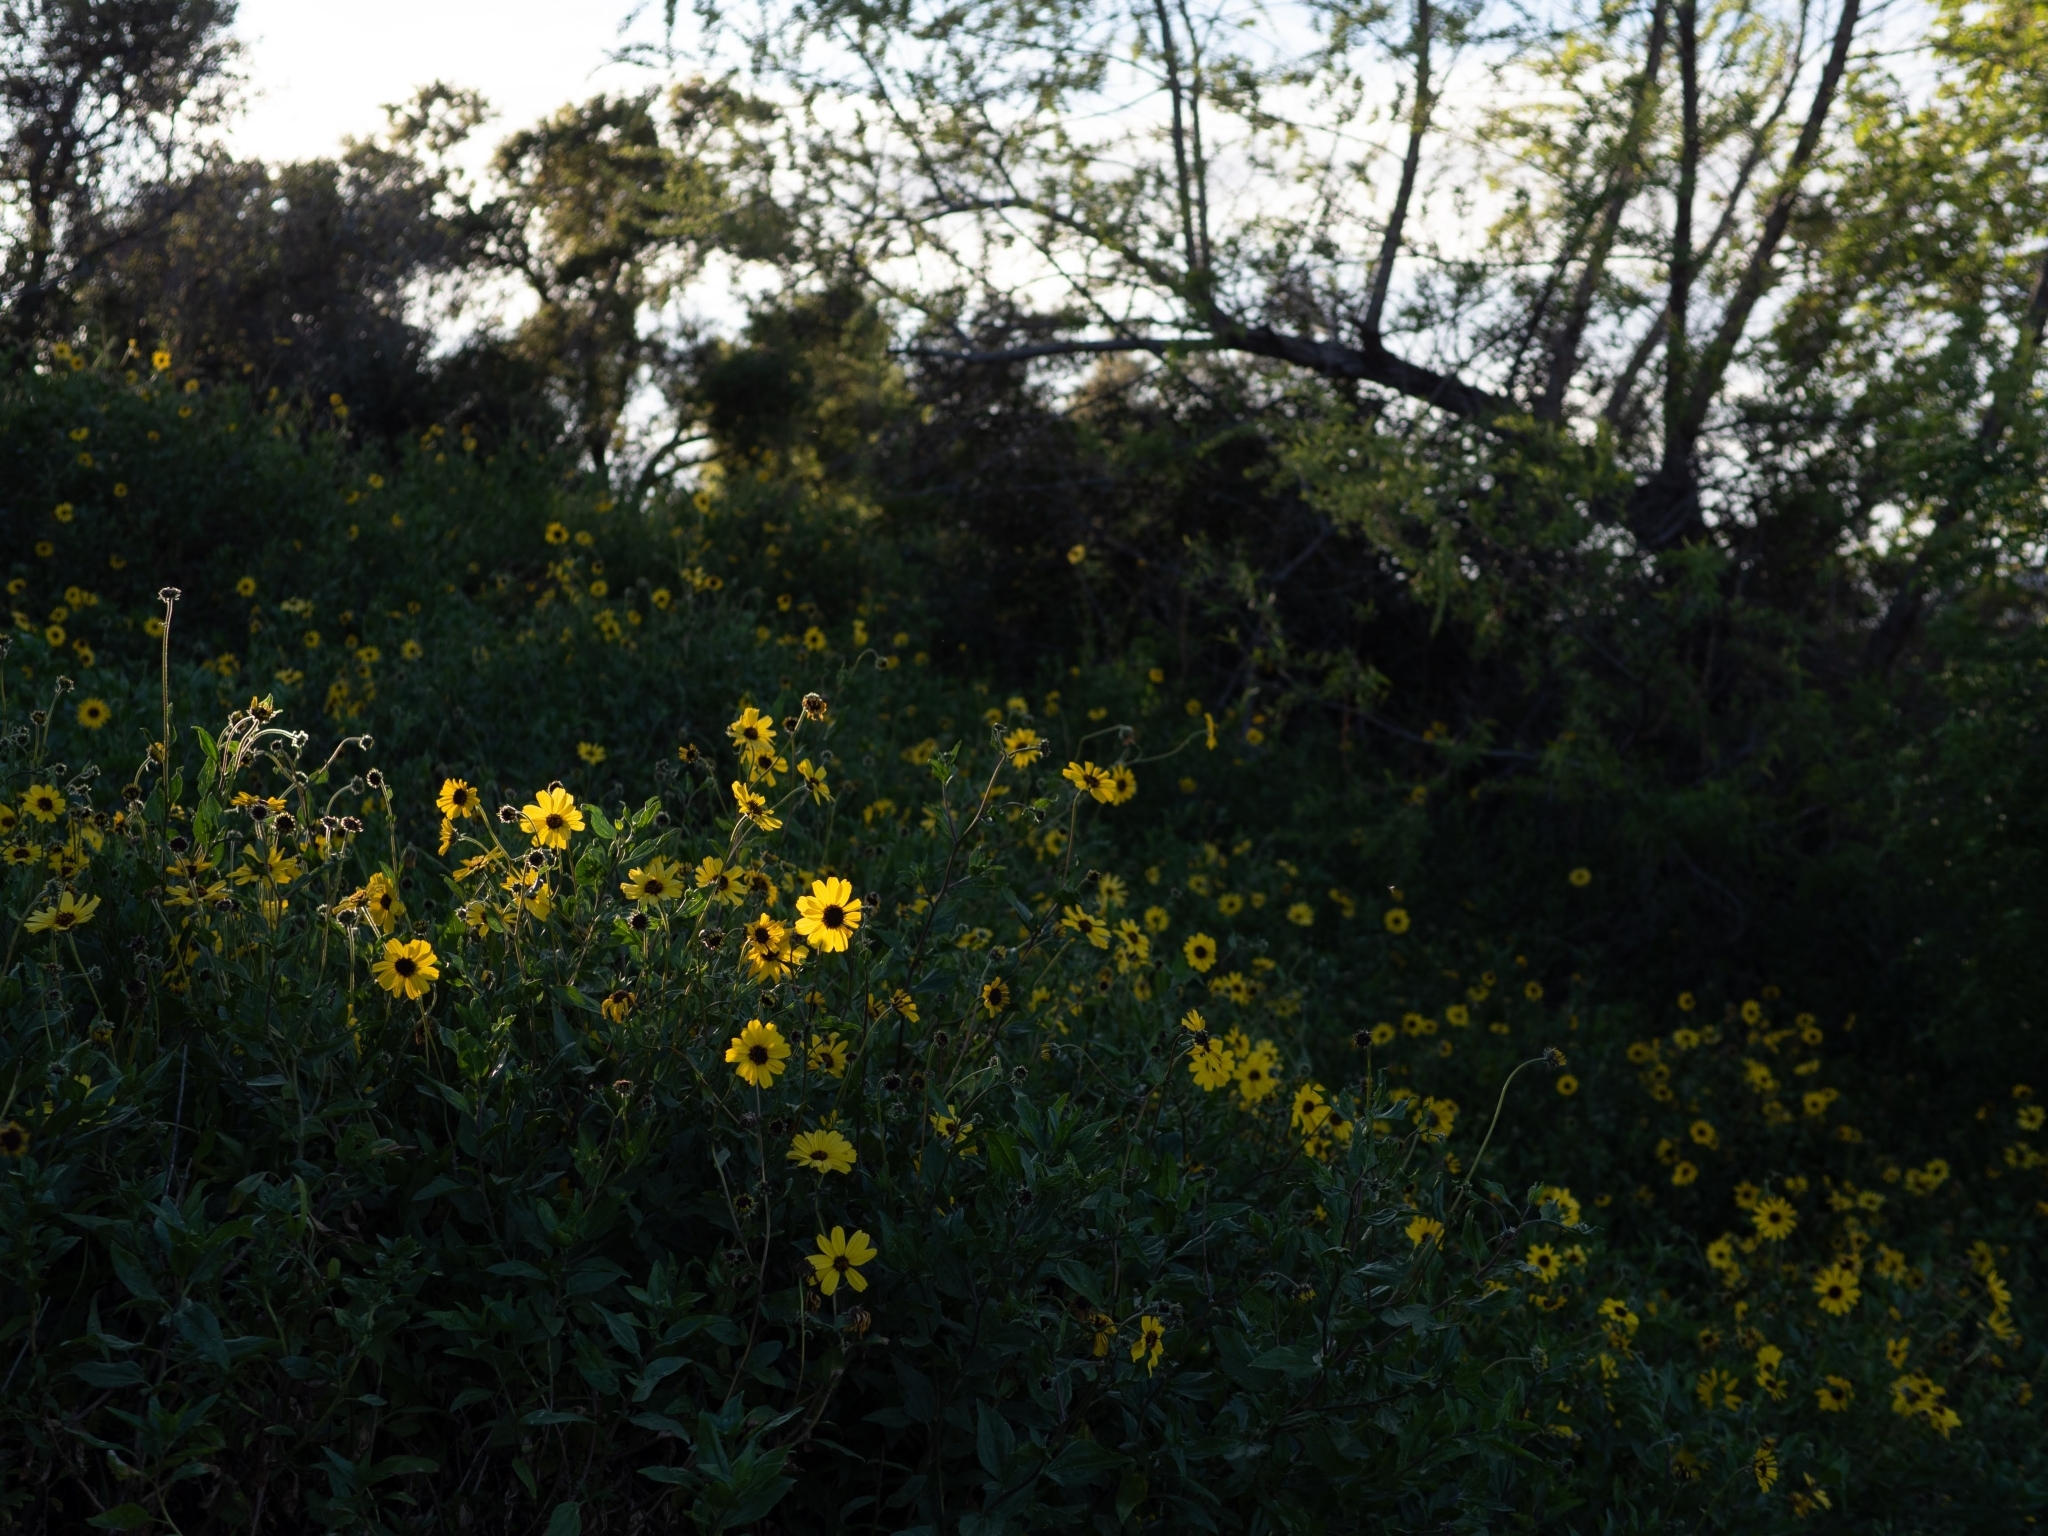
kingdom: Plantae
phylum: Tracheophyta
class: Magnoliopsida
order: Asterales
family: Asteraceae
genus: Encelia
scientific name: Encelia californica
